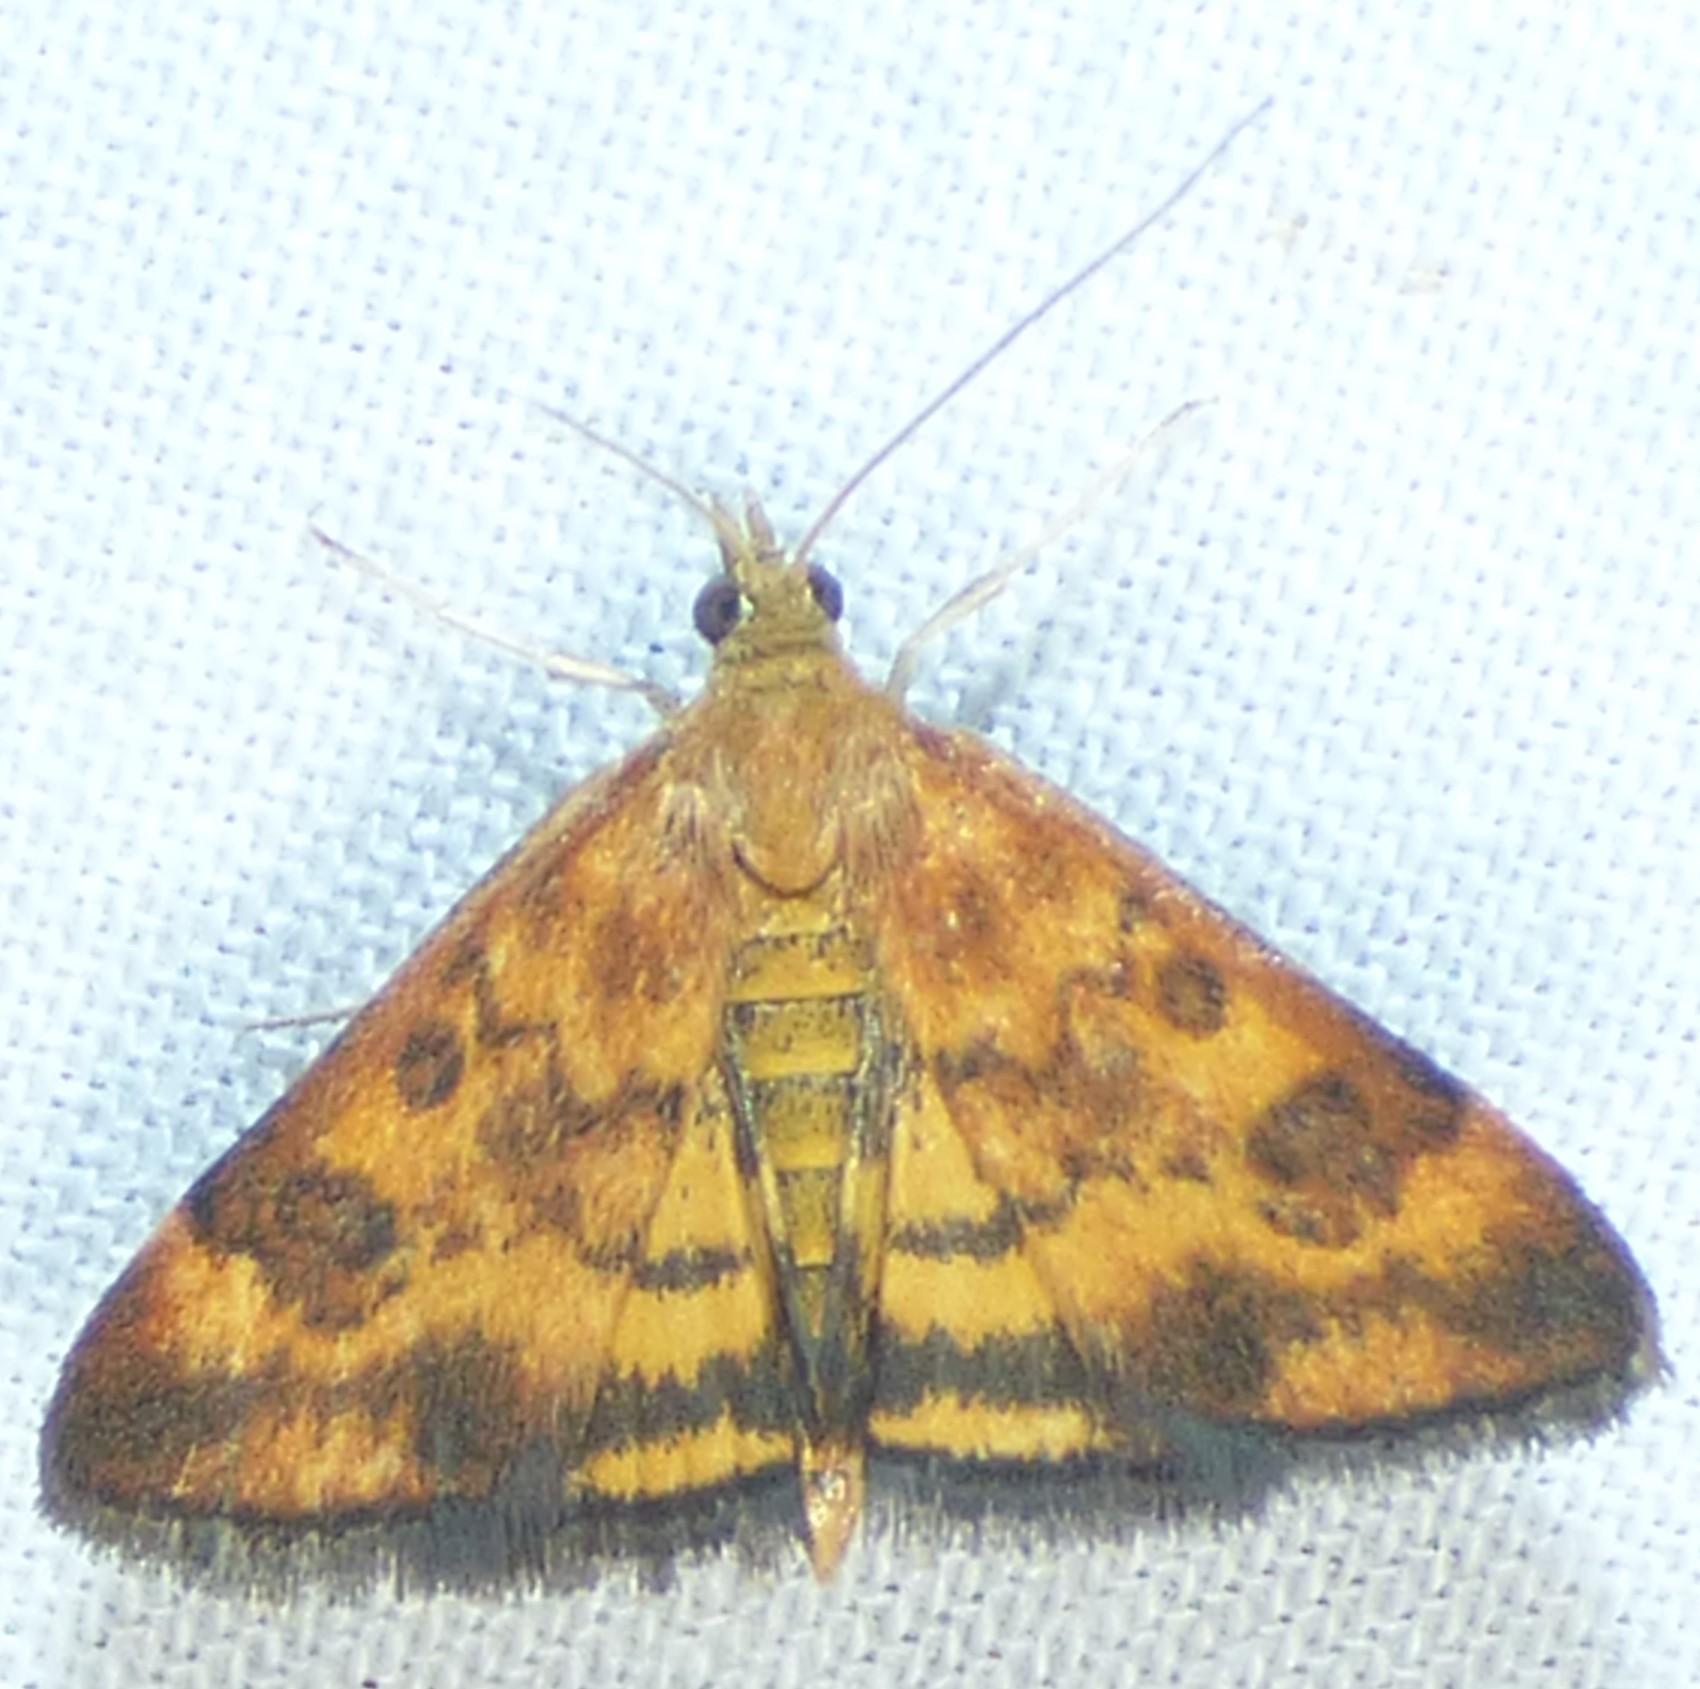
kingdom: Animalia
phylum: Arthropoda
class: Insecta
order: Lepidoptera
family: Crambidae
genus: Pyrausta
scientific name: Pyrausta subsequalis
